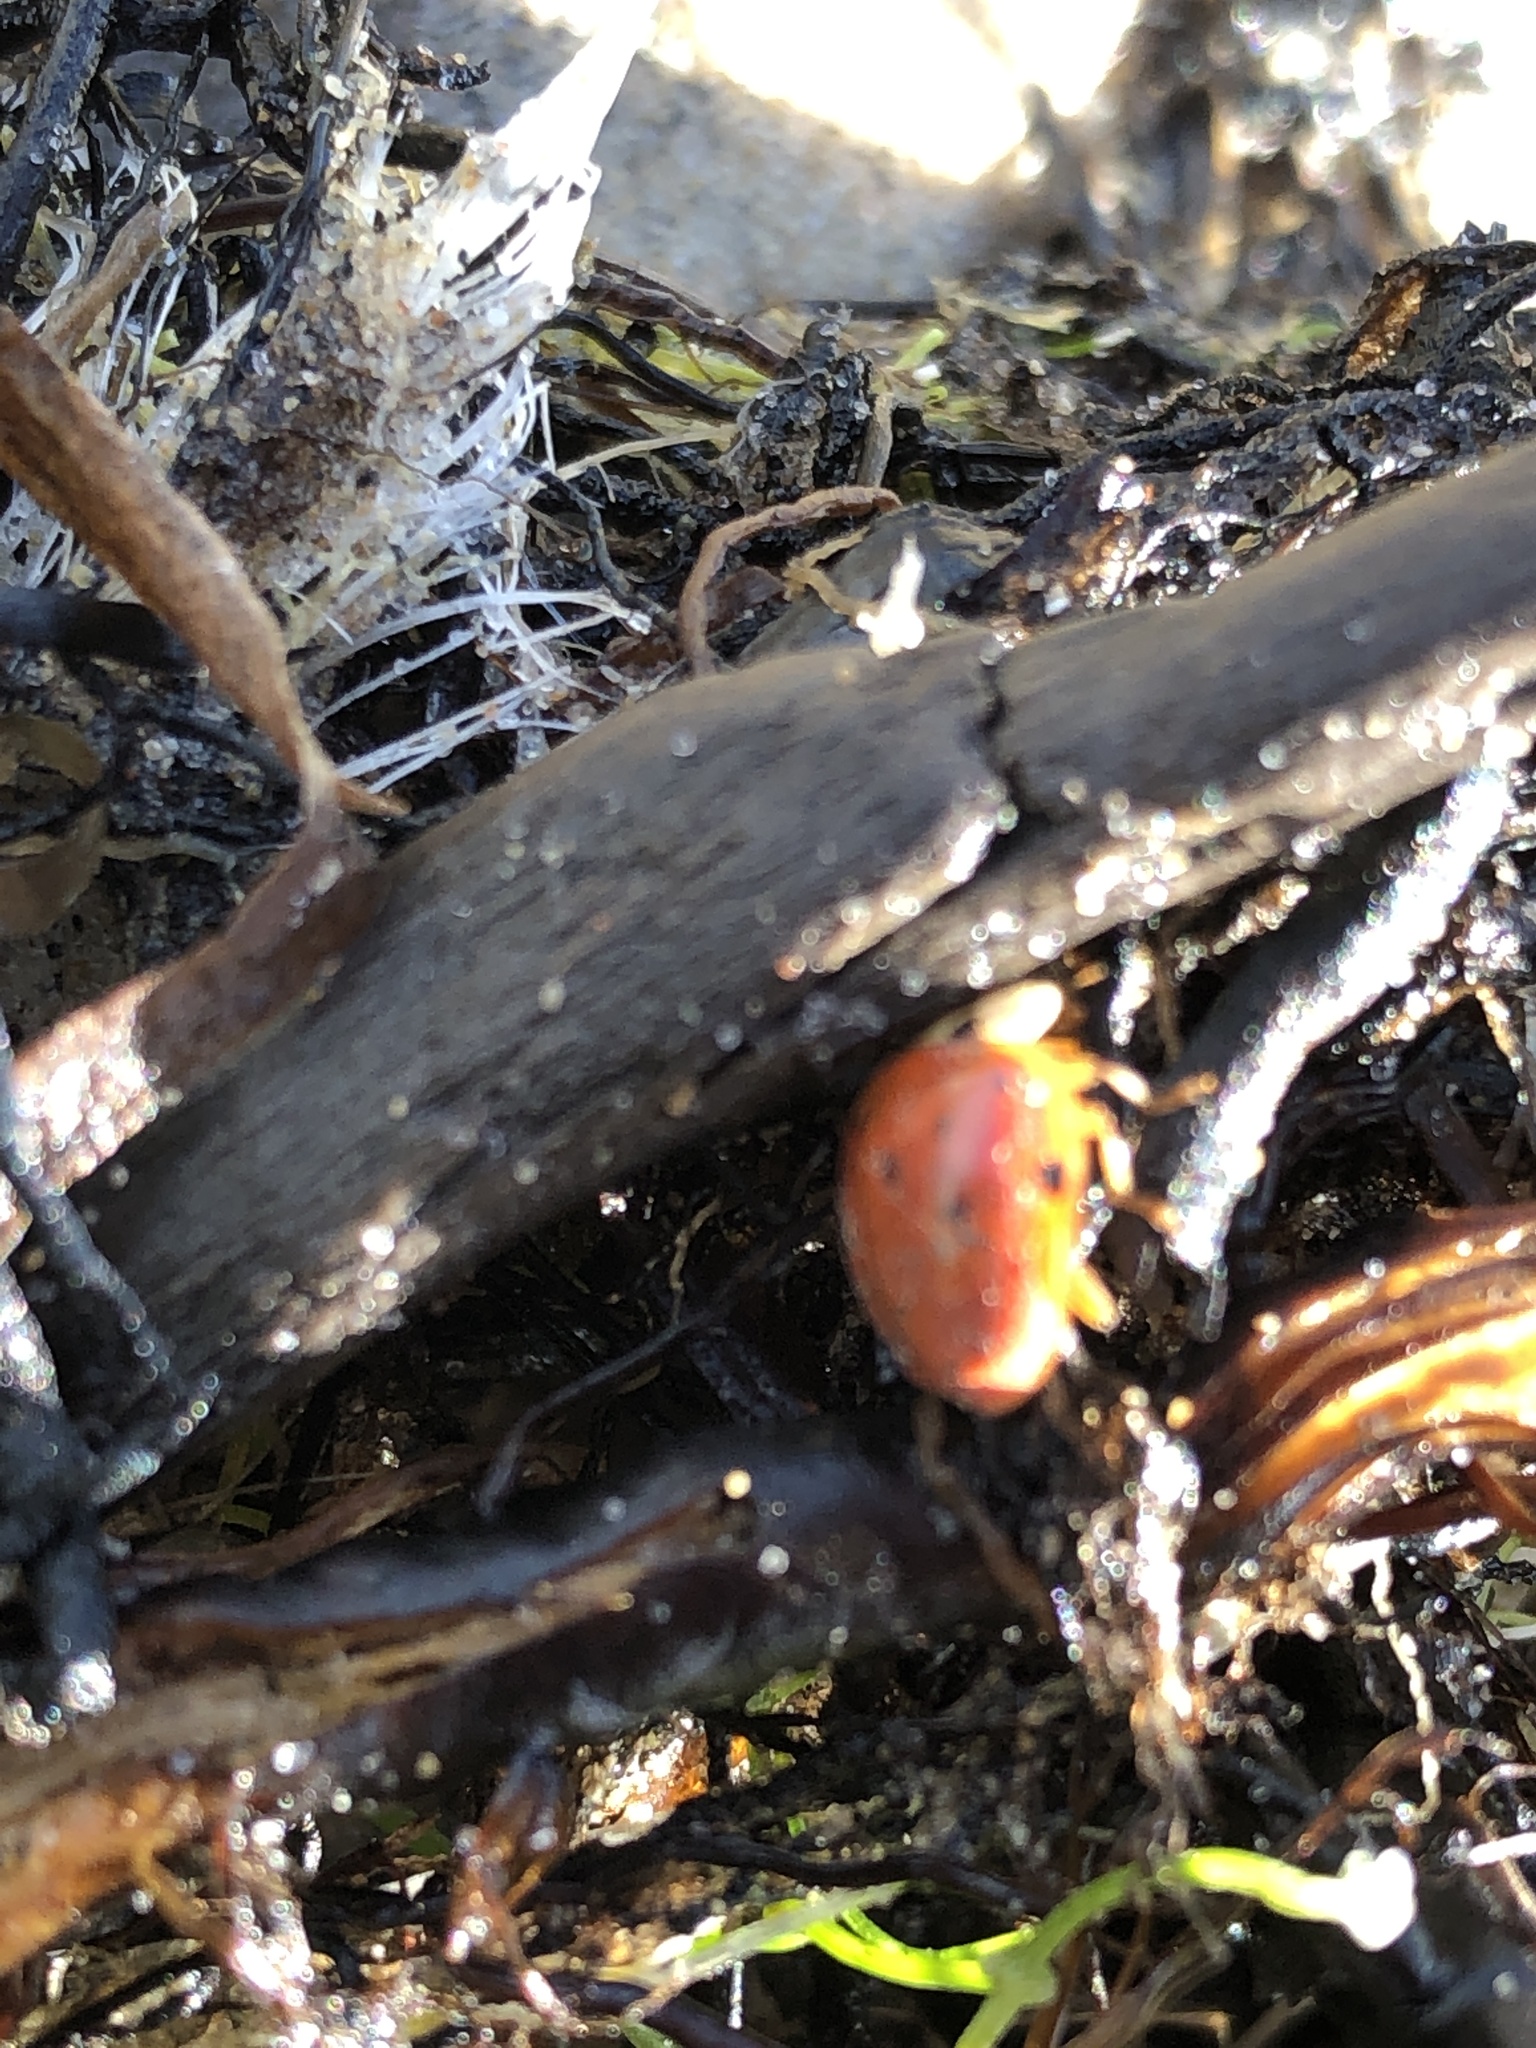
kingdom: Animalia
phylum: Arthropoda
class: Insecta
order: Coleoptera
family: Coccinellidae
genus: Harmonia
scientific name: Harmonia axyridis
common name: Harlequin ladybird
